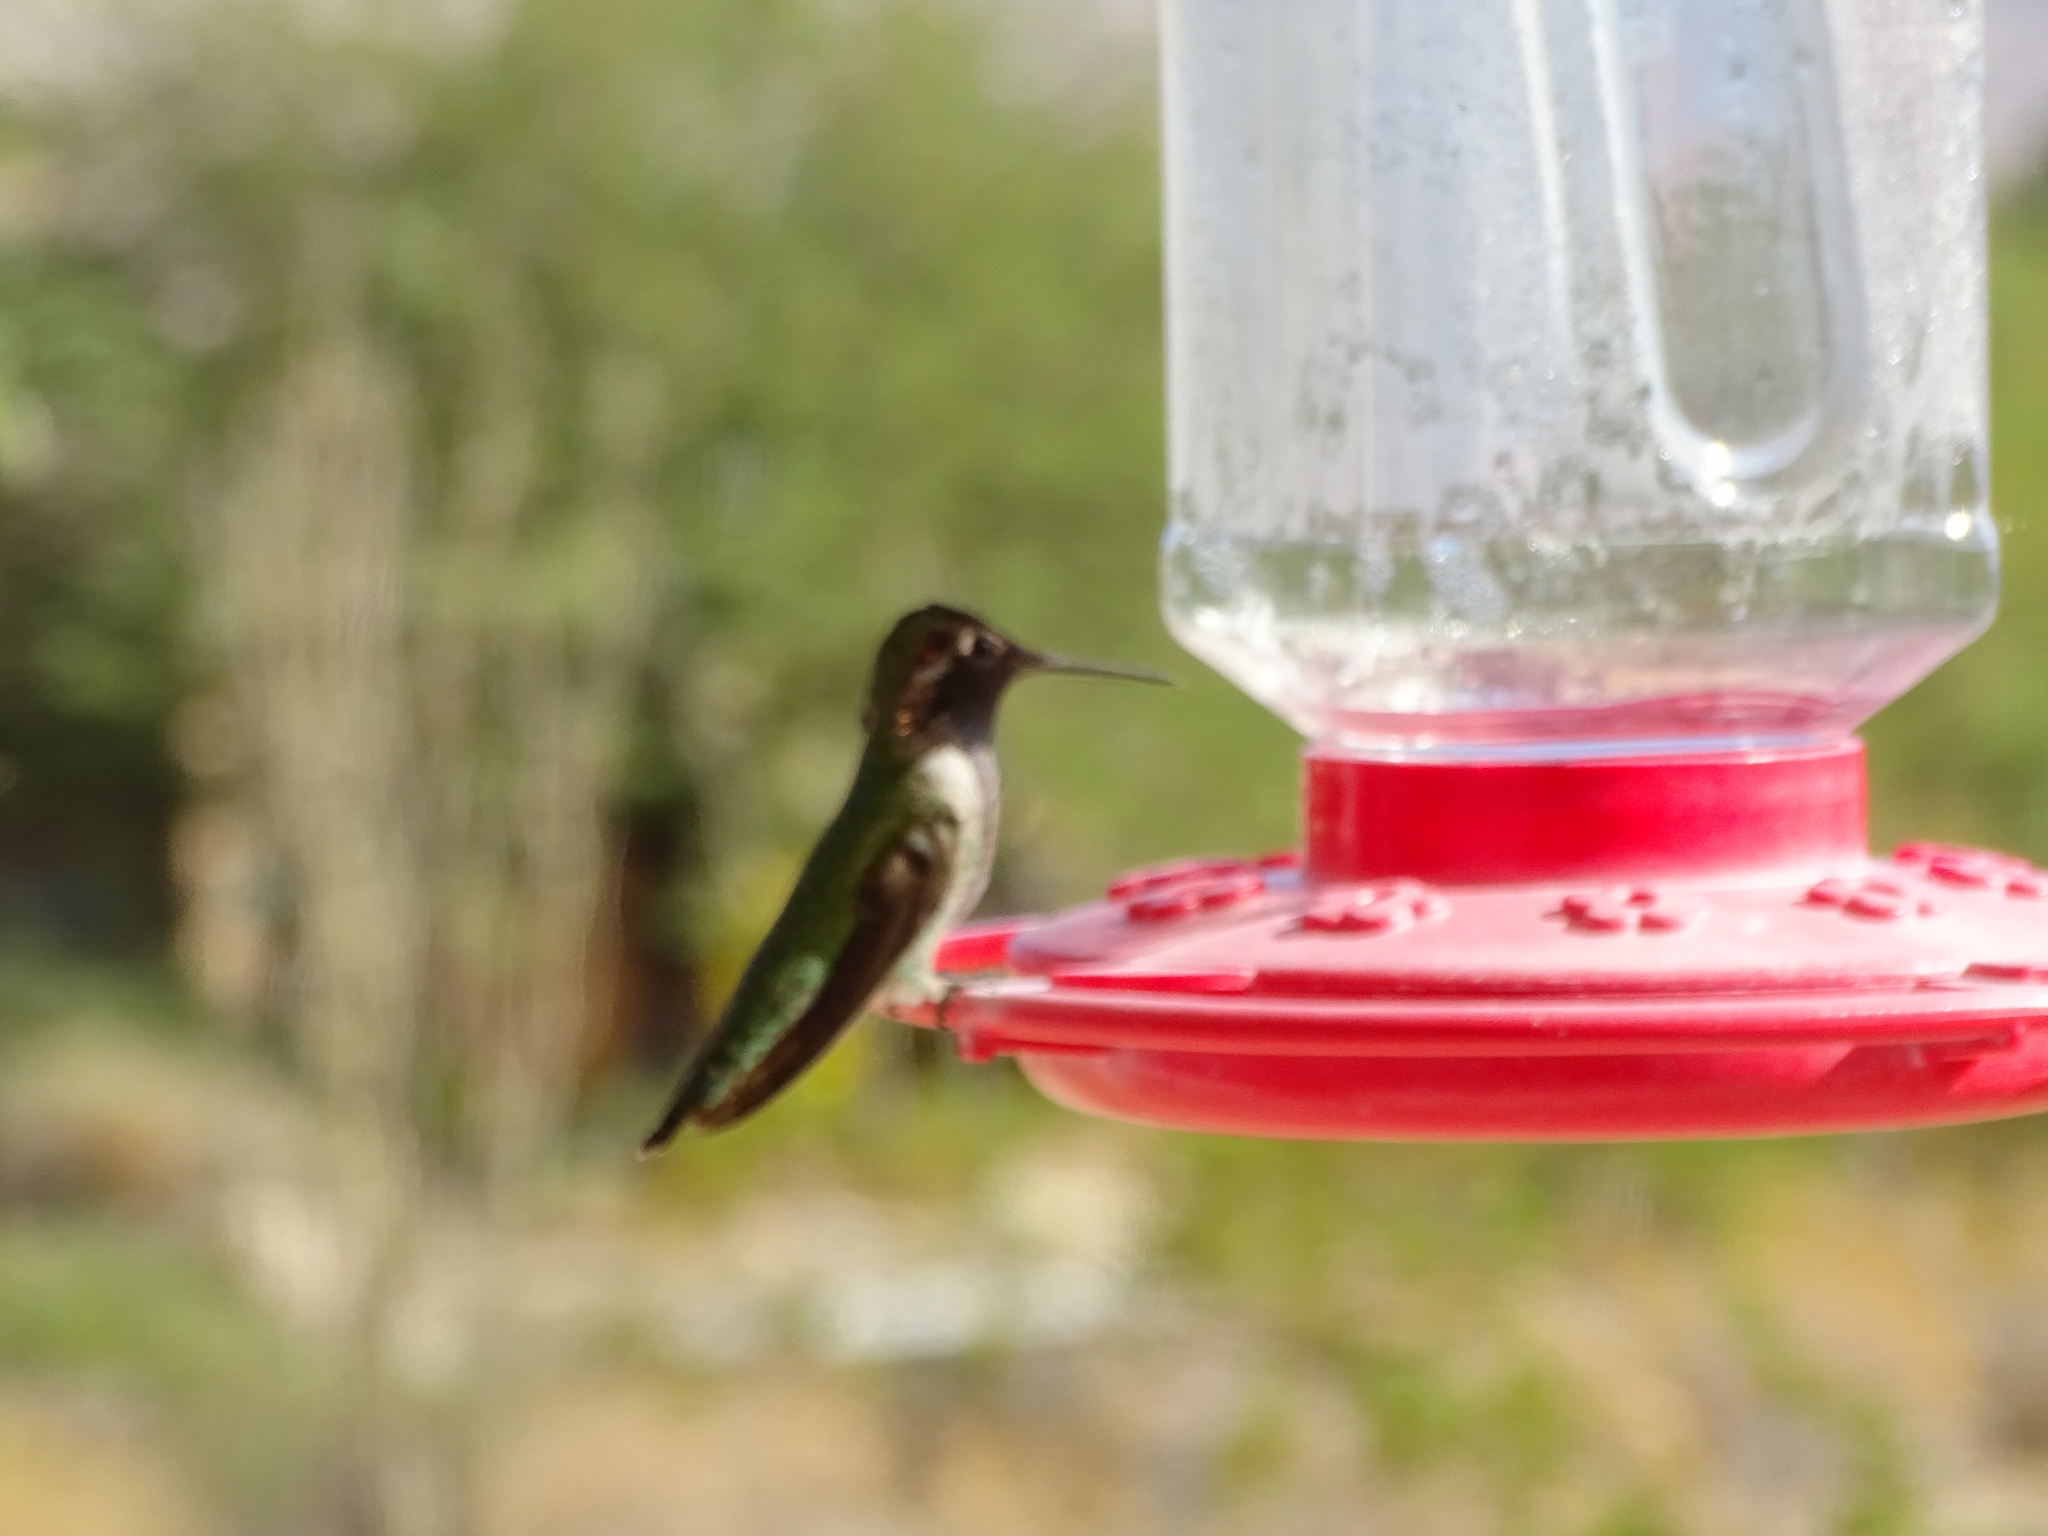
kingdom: Animalia
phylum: Chordata
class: Aves
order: Apodiformes
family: Trochilidae
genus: Calypte
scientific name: Calypte anna
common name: Anna's hummingbird
